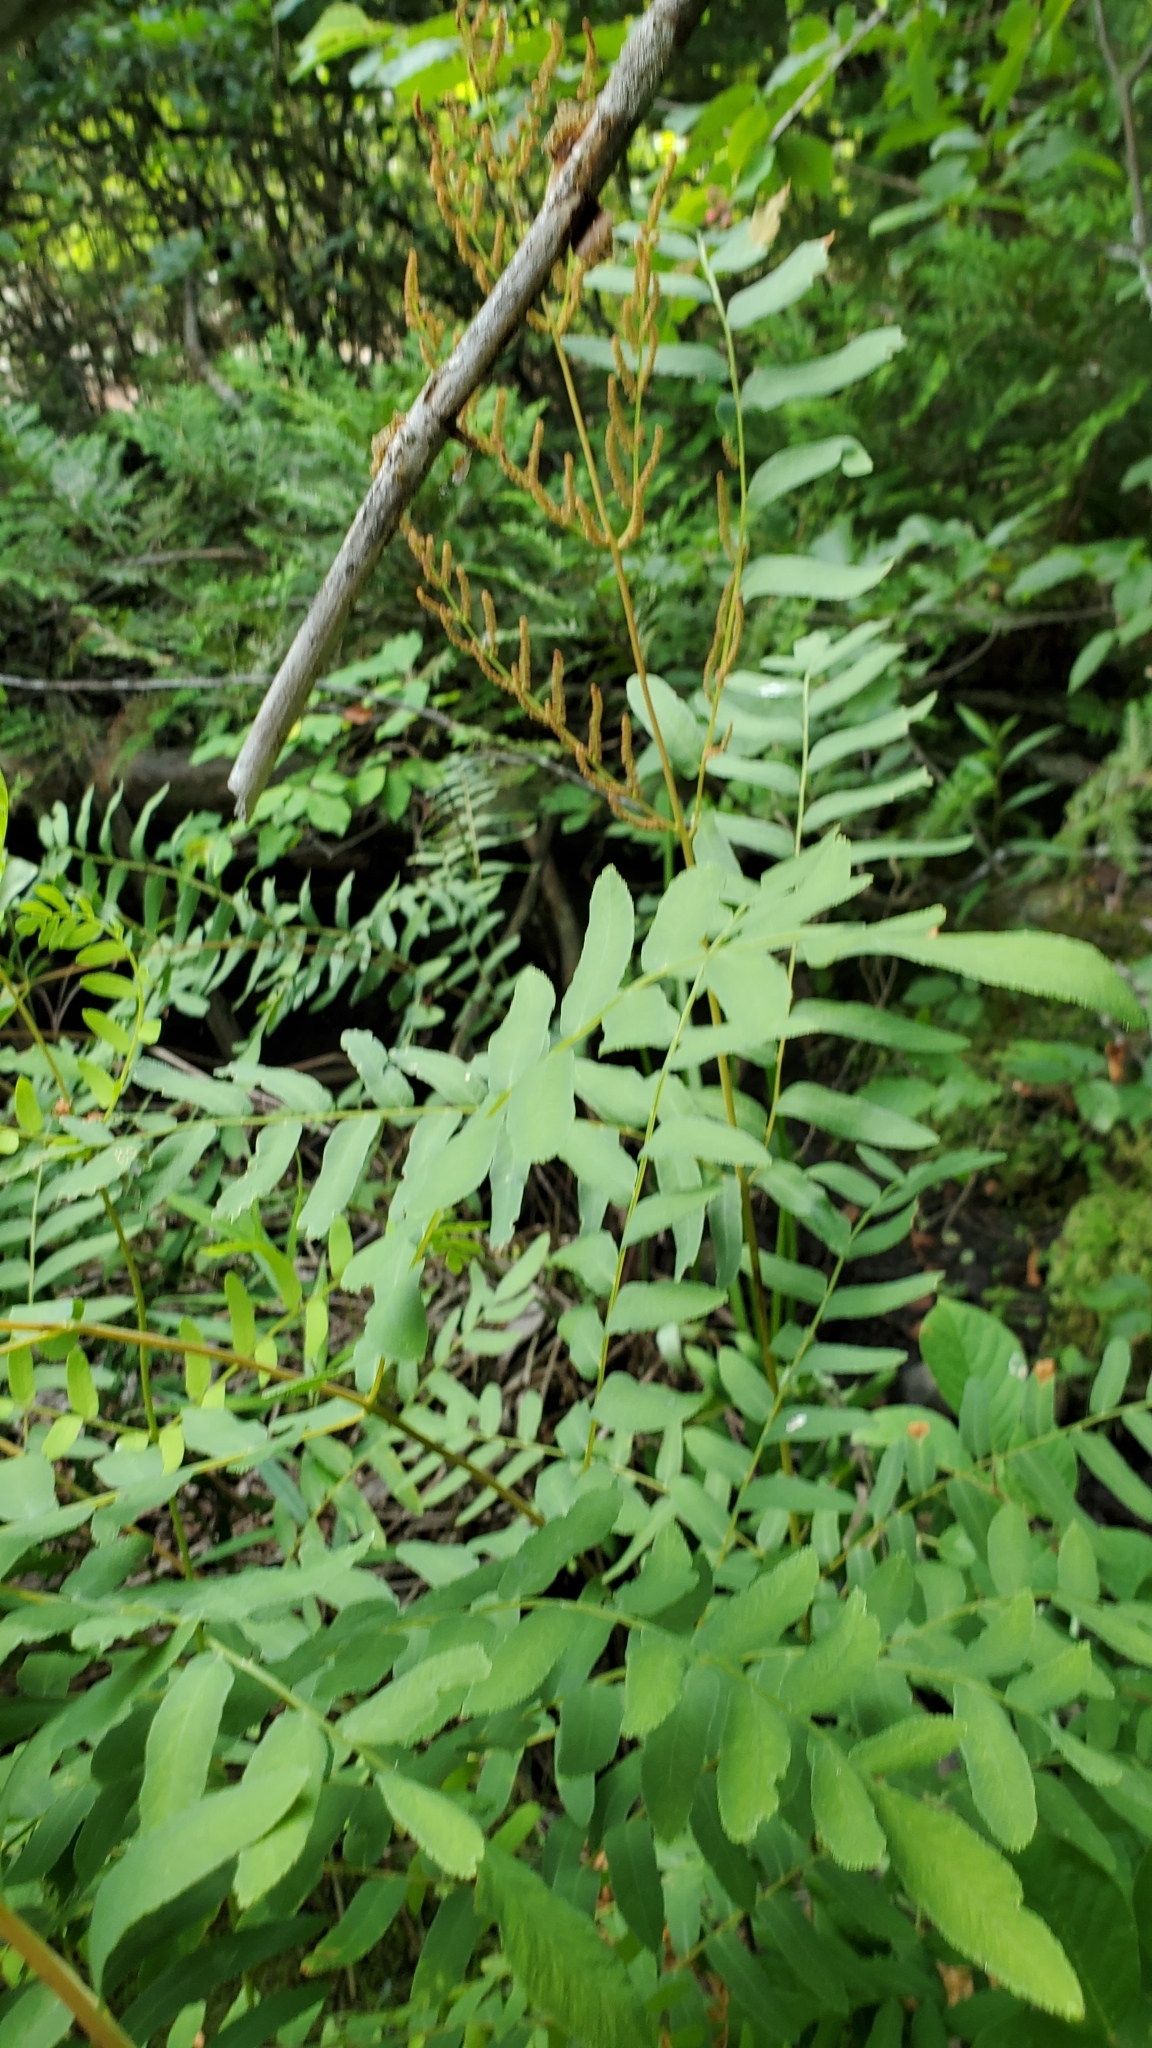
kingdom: Plantae
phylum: Tracheophyta
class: Polypodiopsida
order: Osmundales
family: Osmundaceae
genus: Osmunda
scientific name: Osmunda spectabilis
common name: American royal fern
